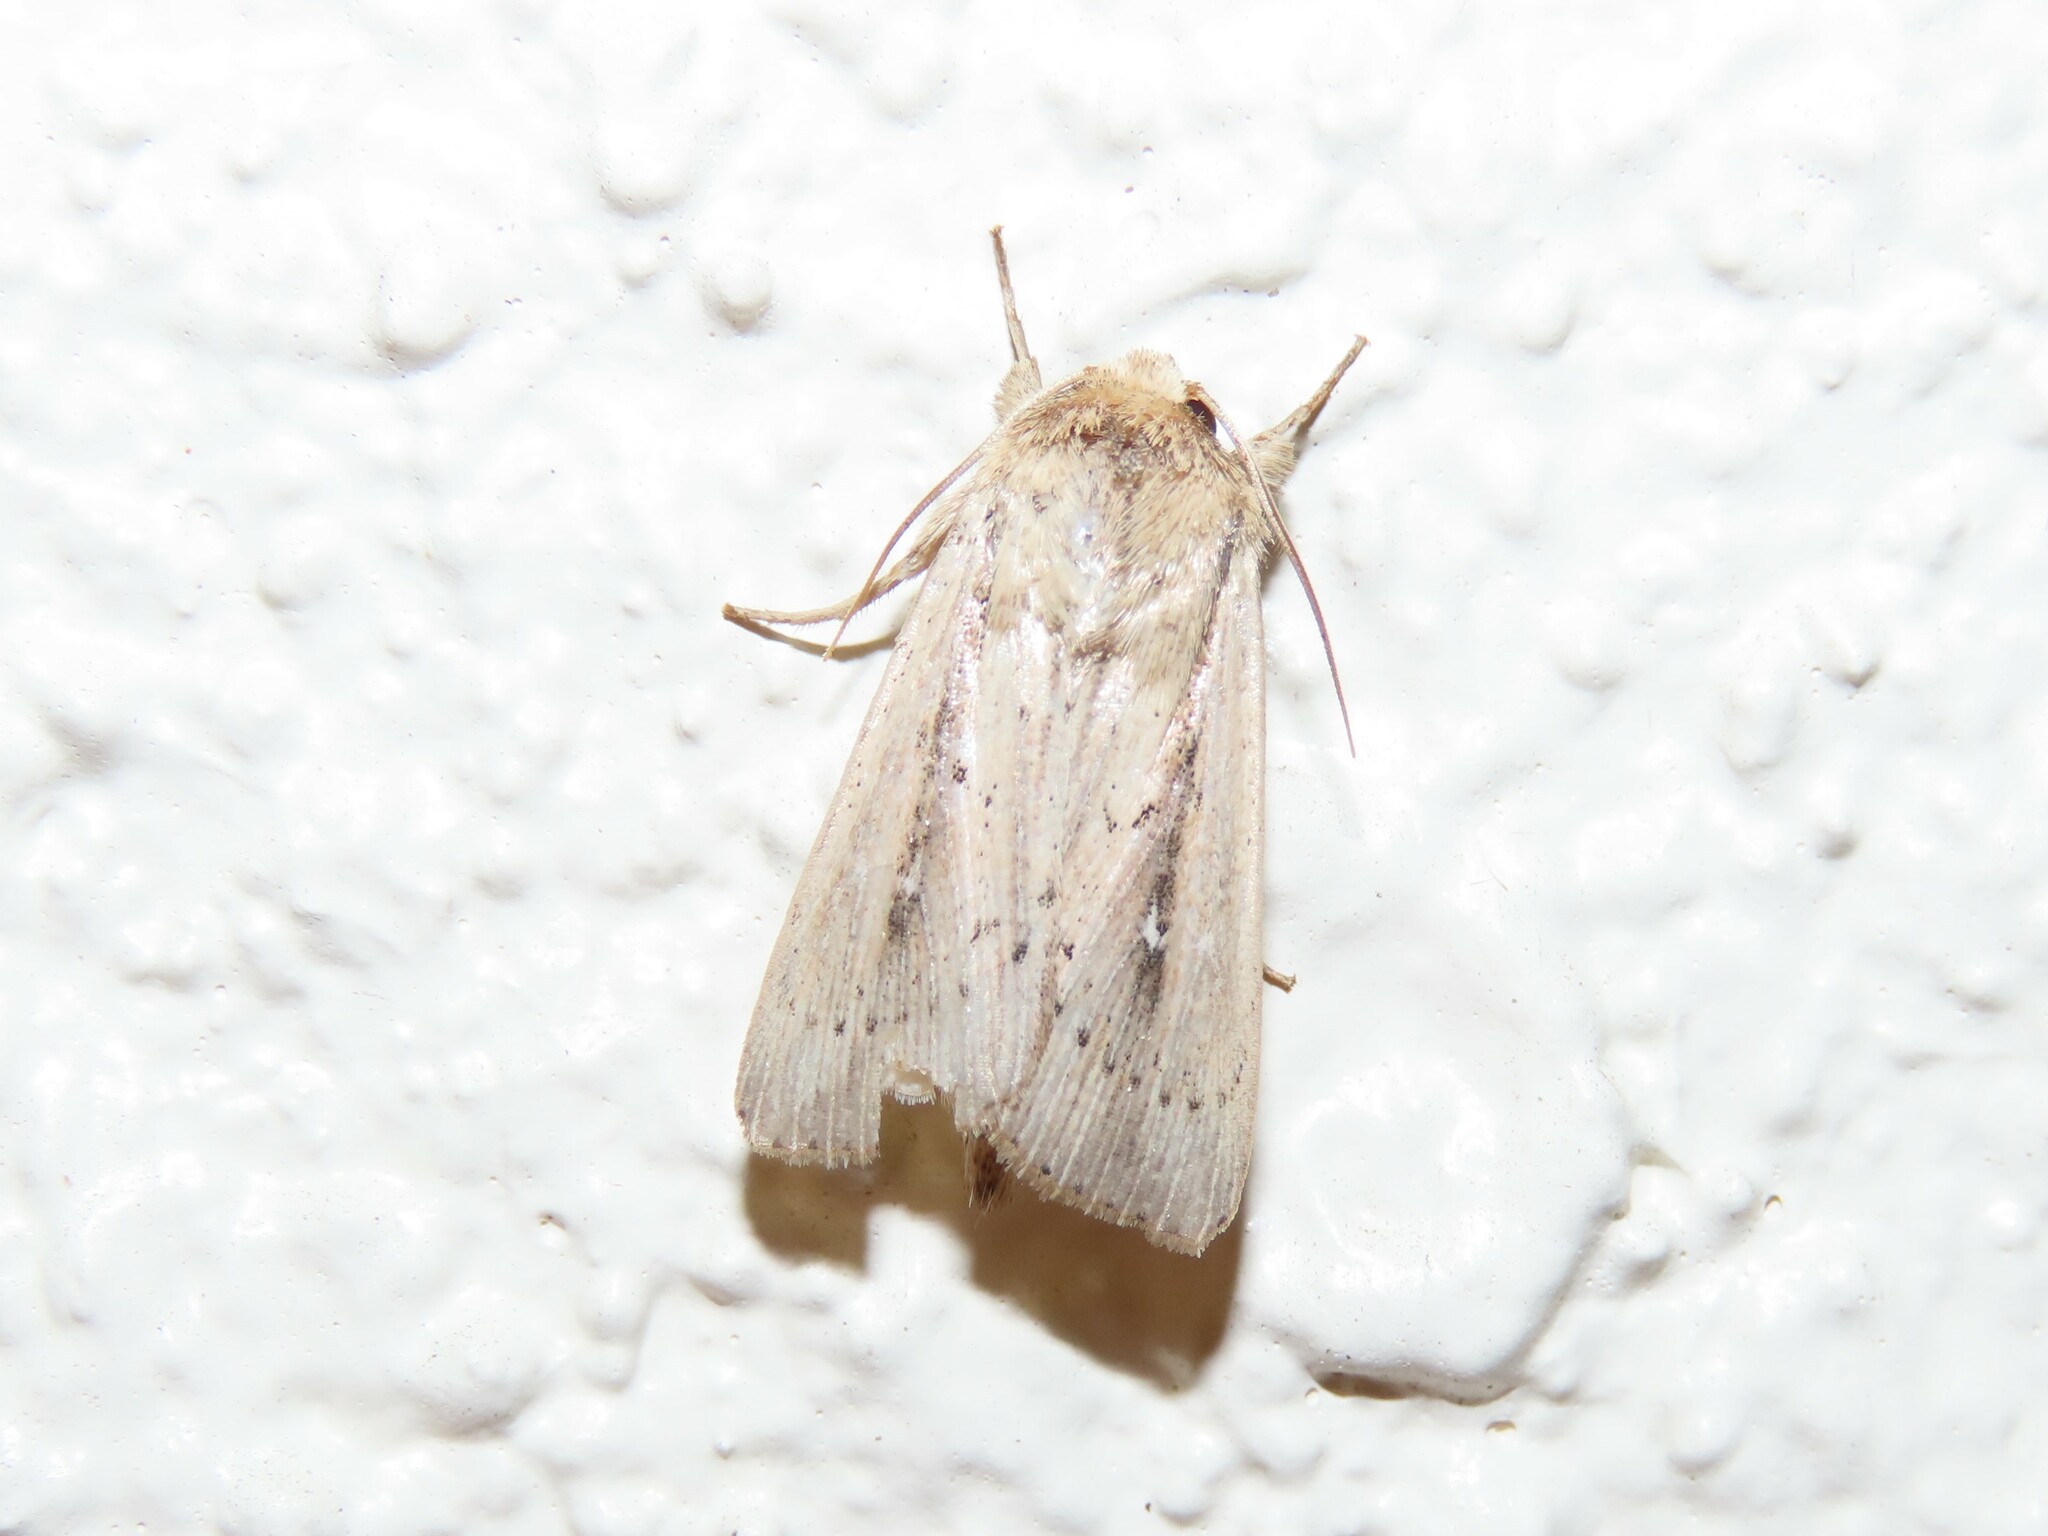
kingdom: Animalia
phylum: Arthropoda
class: Insecta
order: Lepidoptera
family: Noctuidae
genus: Leucania
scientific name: Leucania incognita
